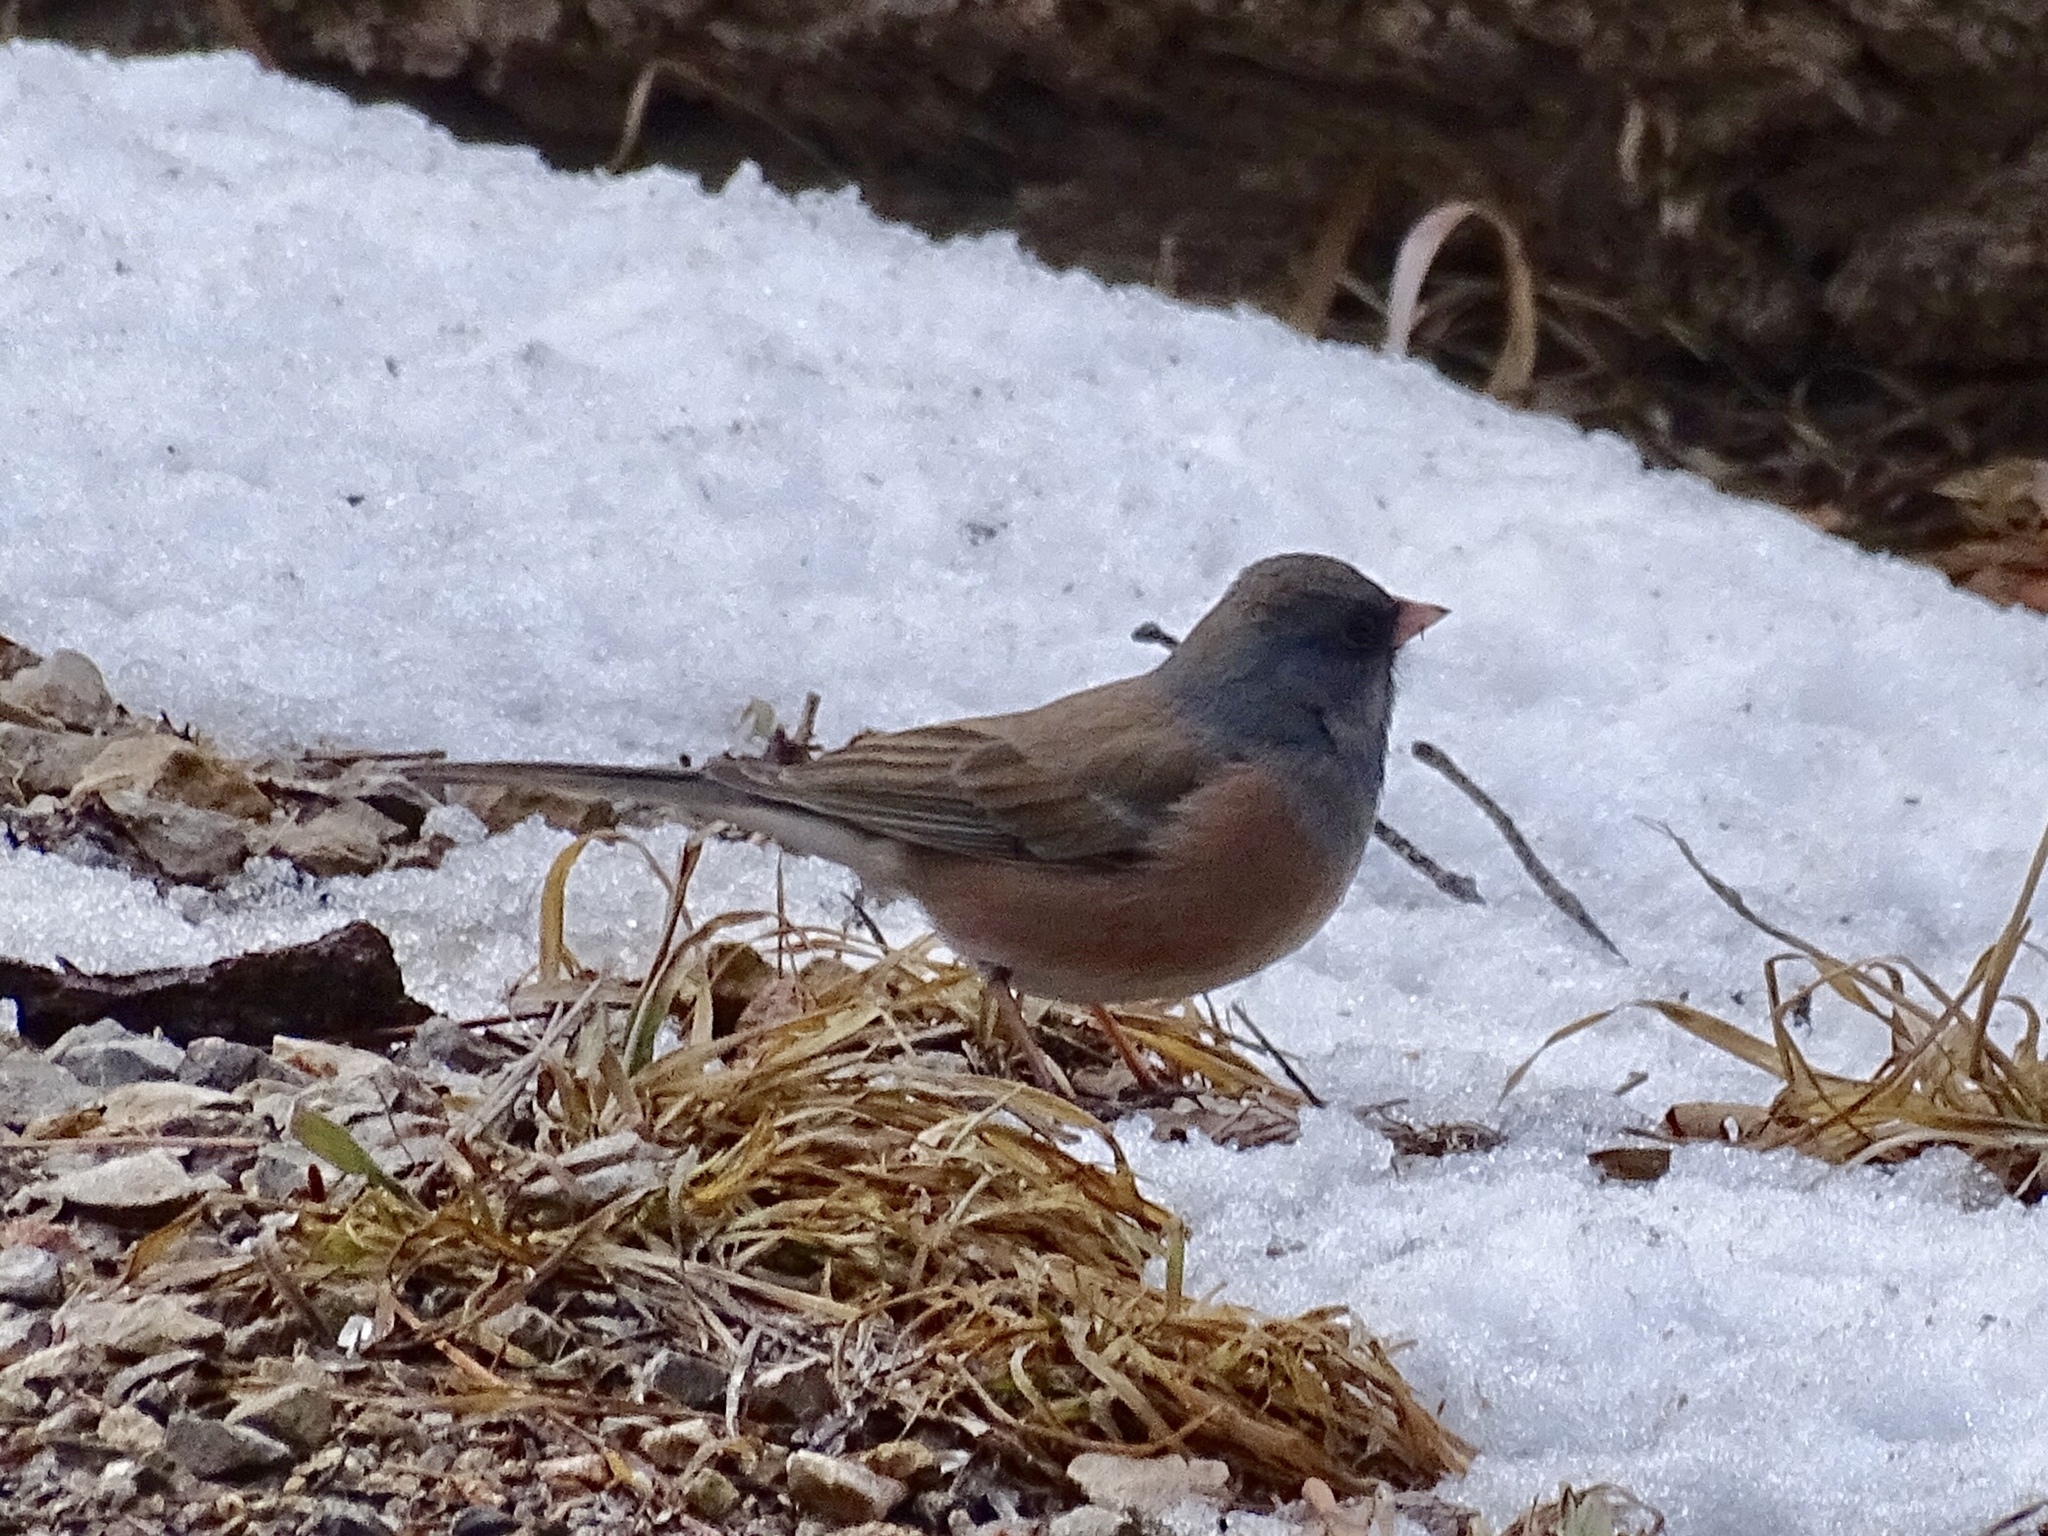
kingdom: Animalia
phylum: Chordata
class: Aves
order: Passeriformes
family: Passerellidae
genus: Junco
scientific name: Junco hyemalis
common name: Dark-eyed junco
